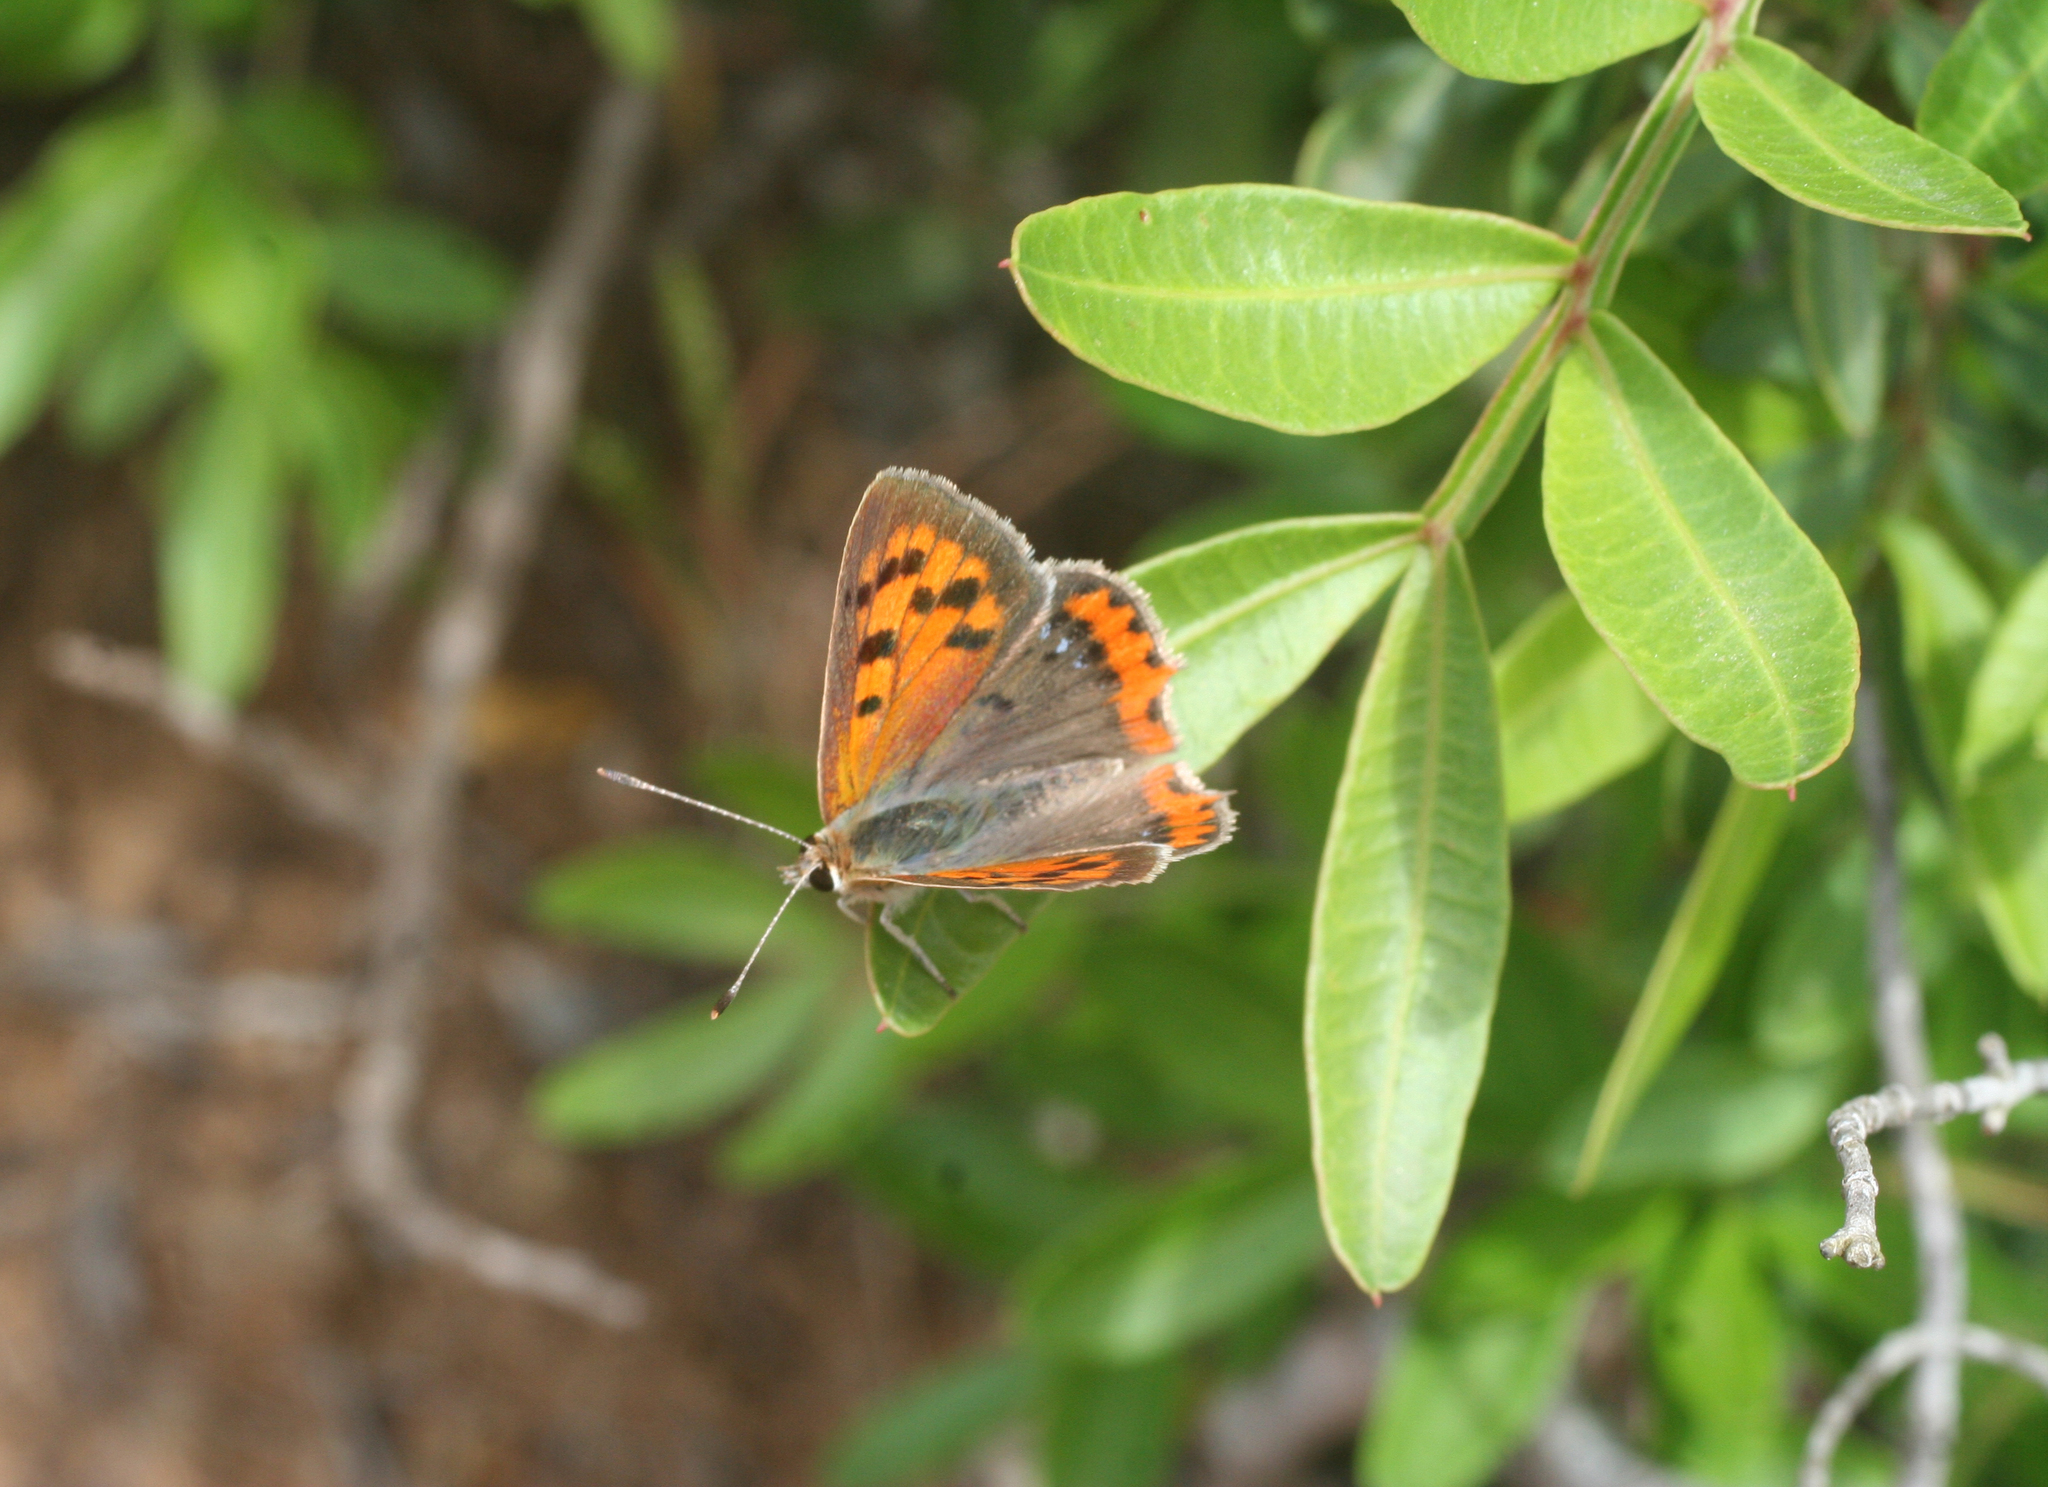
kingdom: Animalia
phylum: Arthropoda
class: Insecta
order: Lepidoptera
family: Lycaenidae
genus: Lycaena
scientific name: Lycaena phlaeas
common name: Small copper
